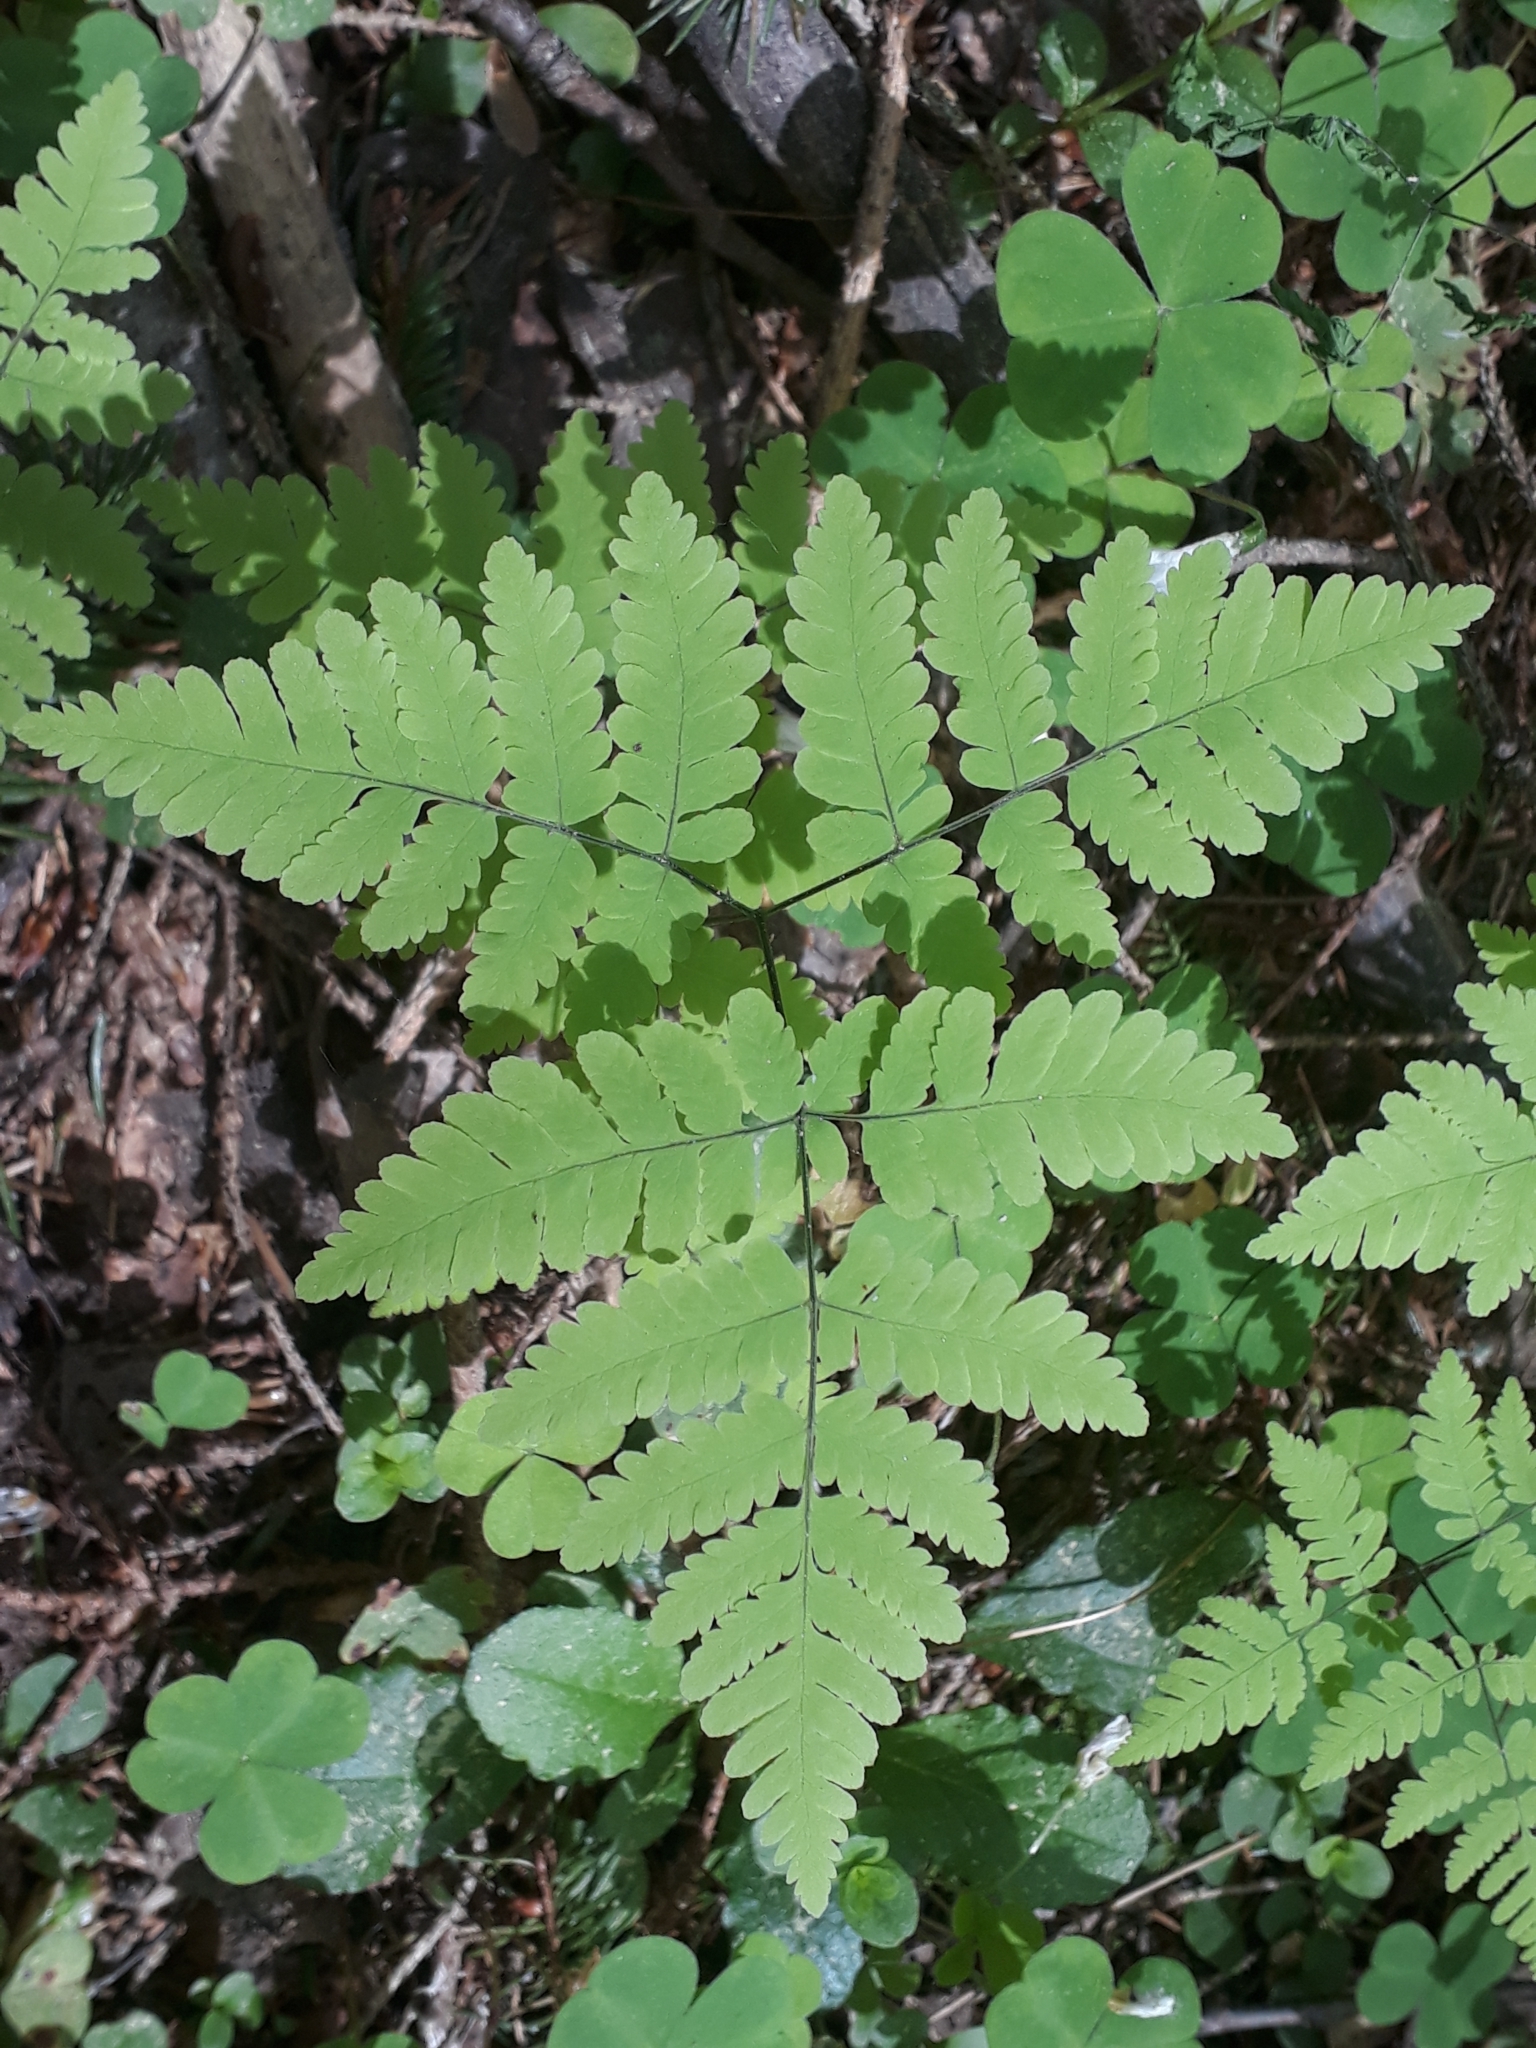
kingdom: Plantae
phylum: Tracheophyta
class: Polypodiopsida
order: Polypodiales
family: Cystopteridaceae
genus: Gymnocarpium
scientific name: Gymnocarpium dryopteris
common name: Oak fern
